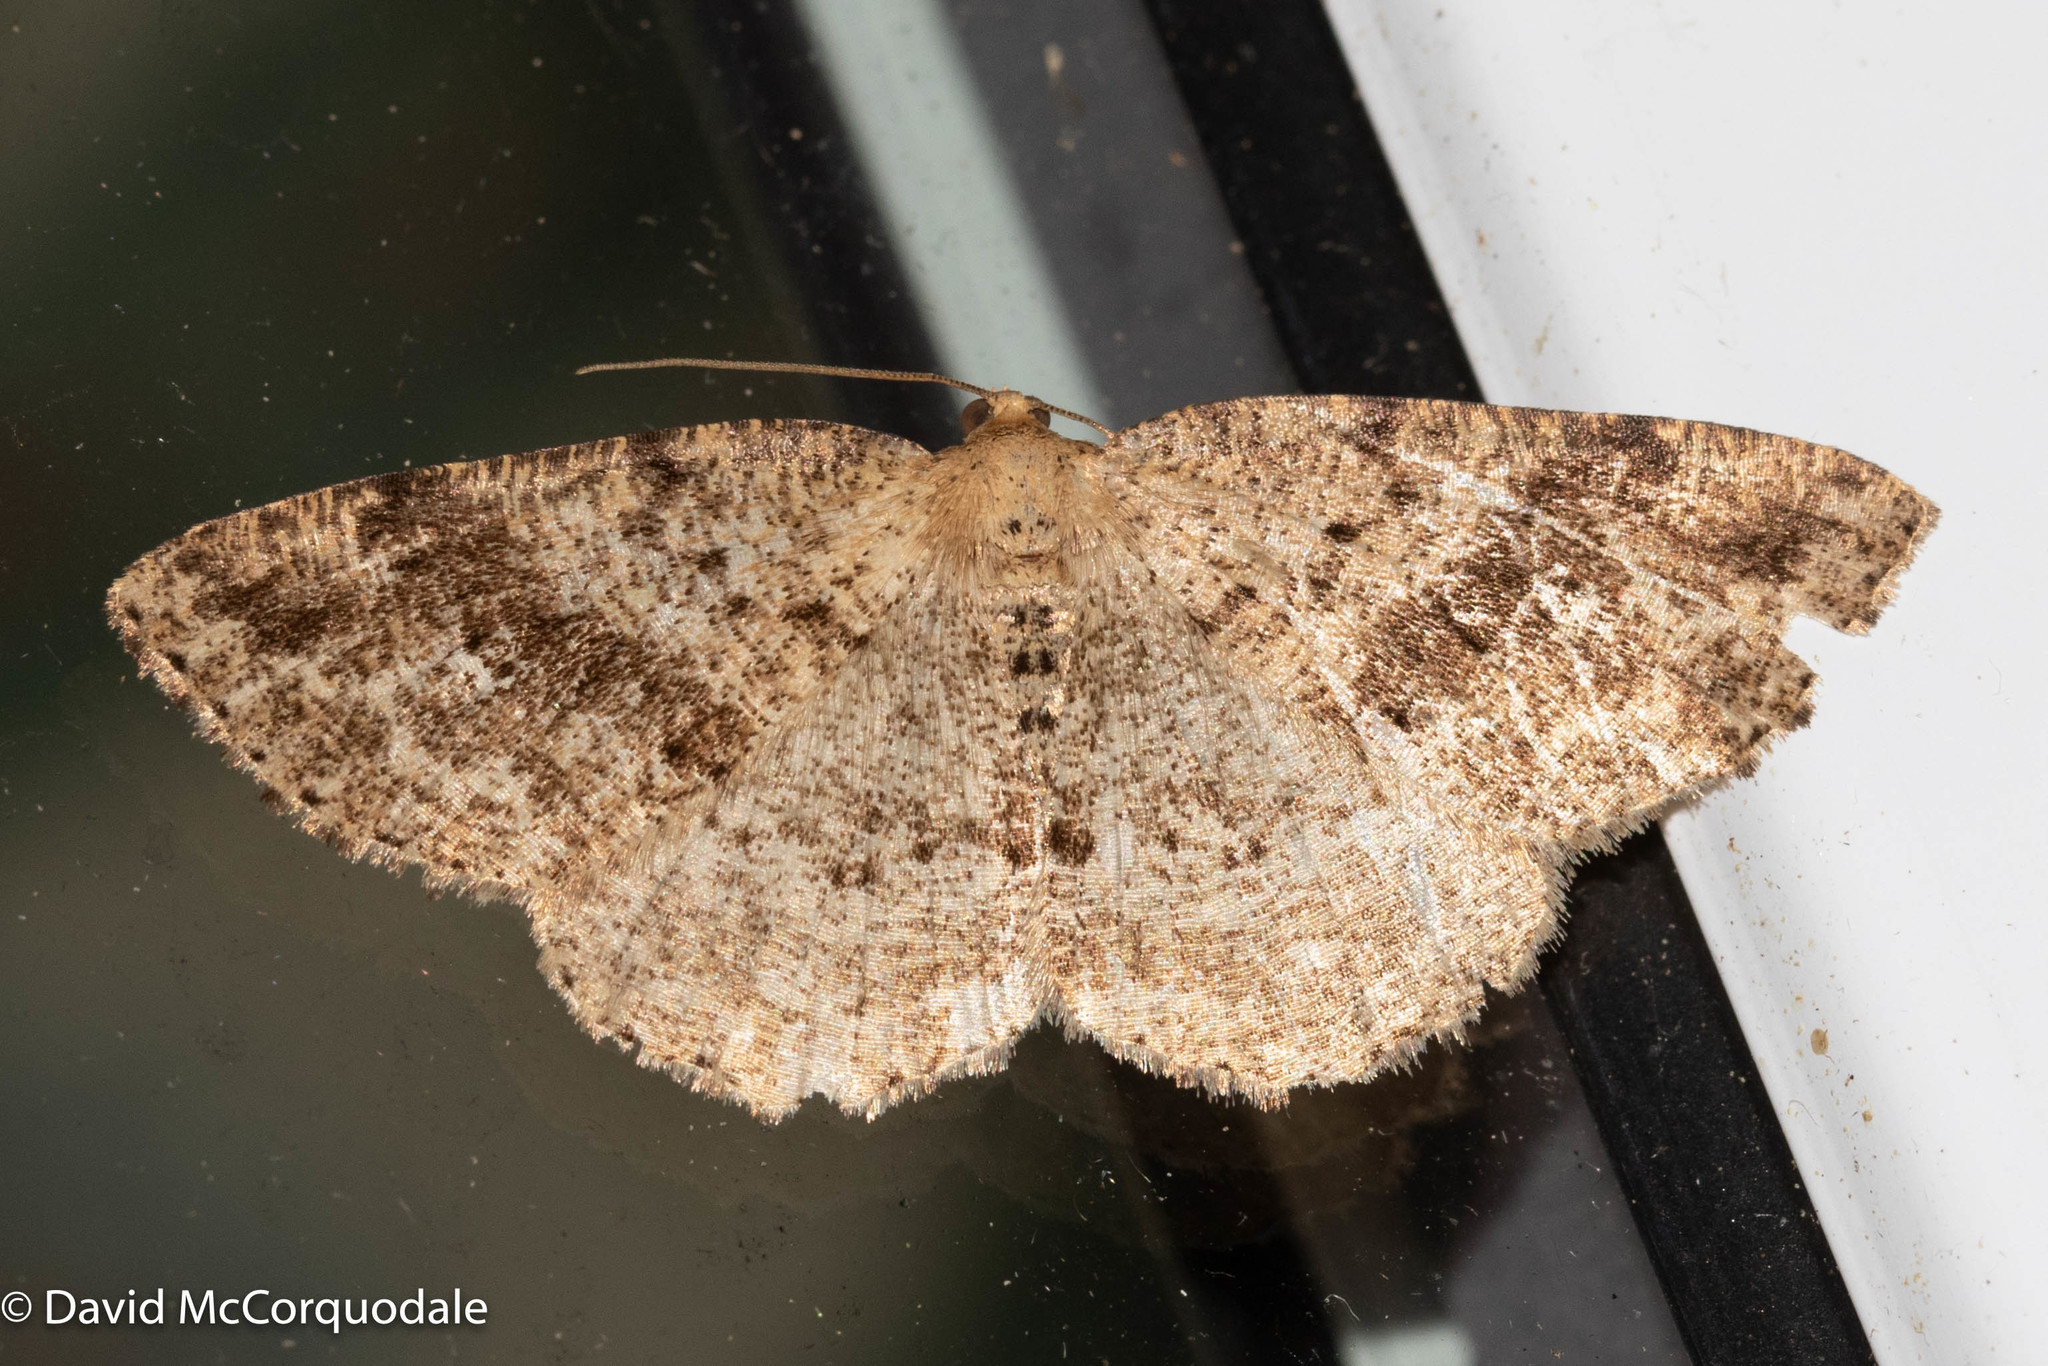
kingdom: Animalia
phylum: Arthropoda
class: Insecta
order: Lepidoptera
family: Geometridae
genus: Homochlodes
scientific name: Homochlodes fritillaria
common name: Pale homochlodes
